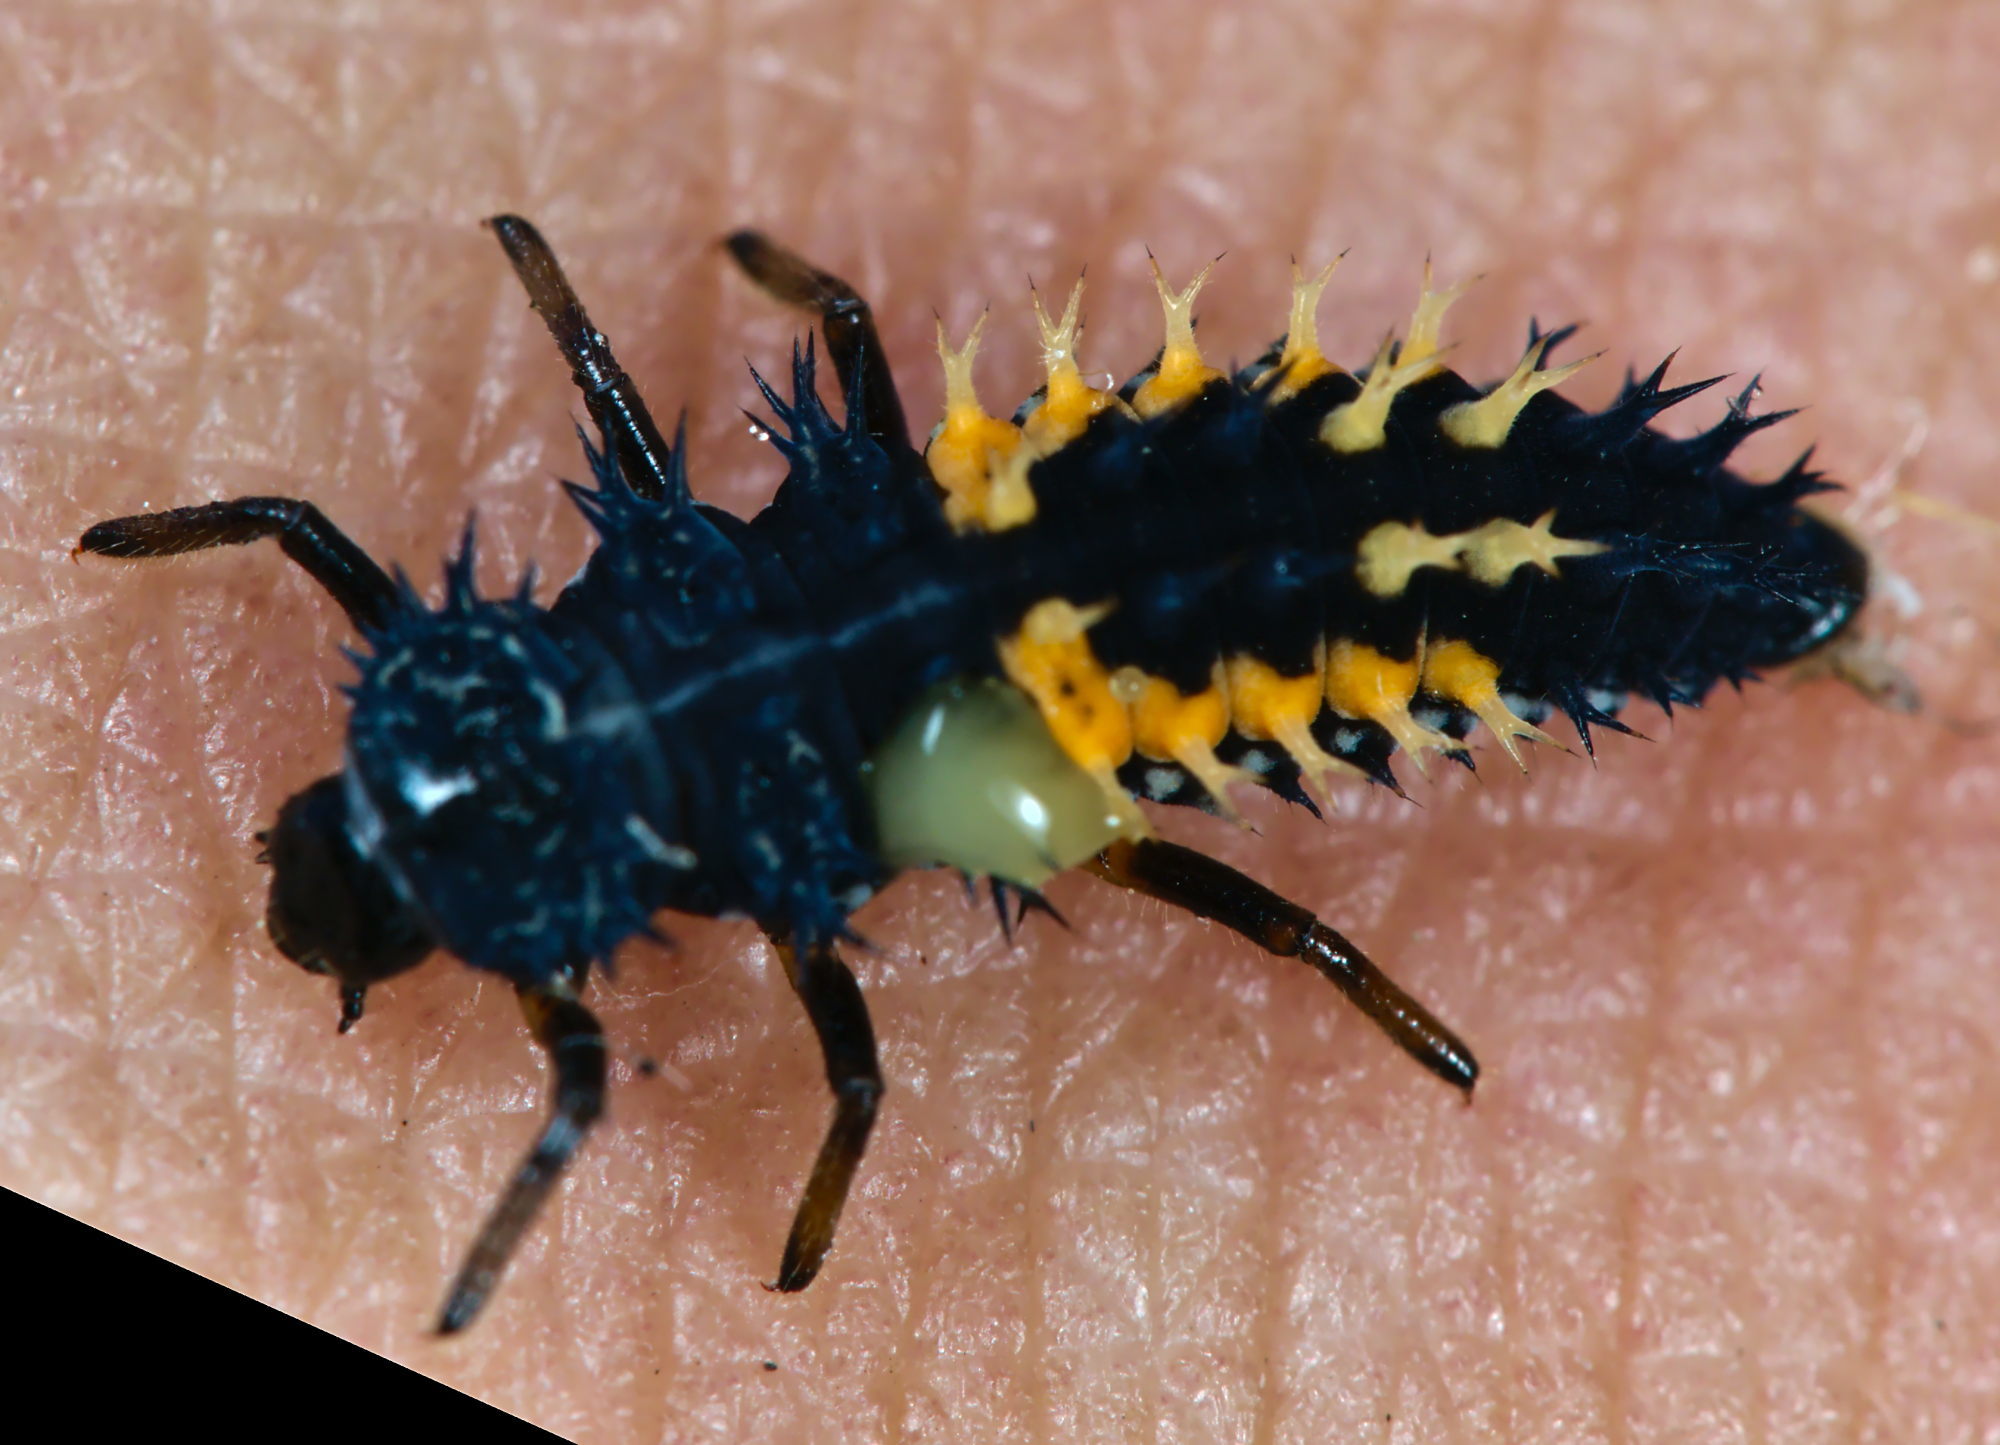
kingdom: Animalia
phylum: Arthropoda
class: Insecta
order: Coleoptera
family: Coccinellidae
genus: Harmonia
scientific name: Harmonia axyridis
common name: Harlequin ladybird
